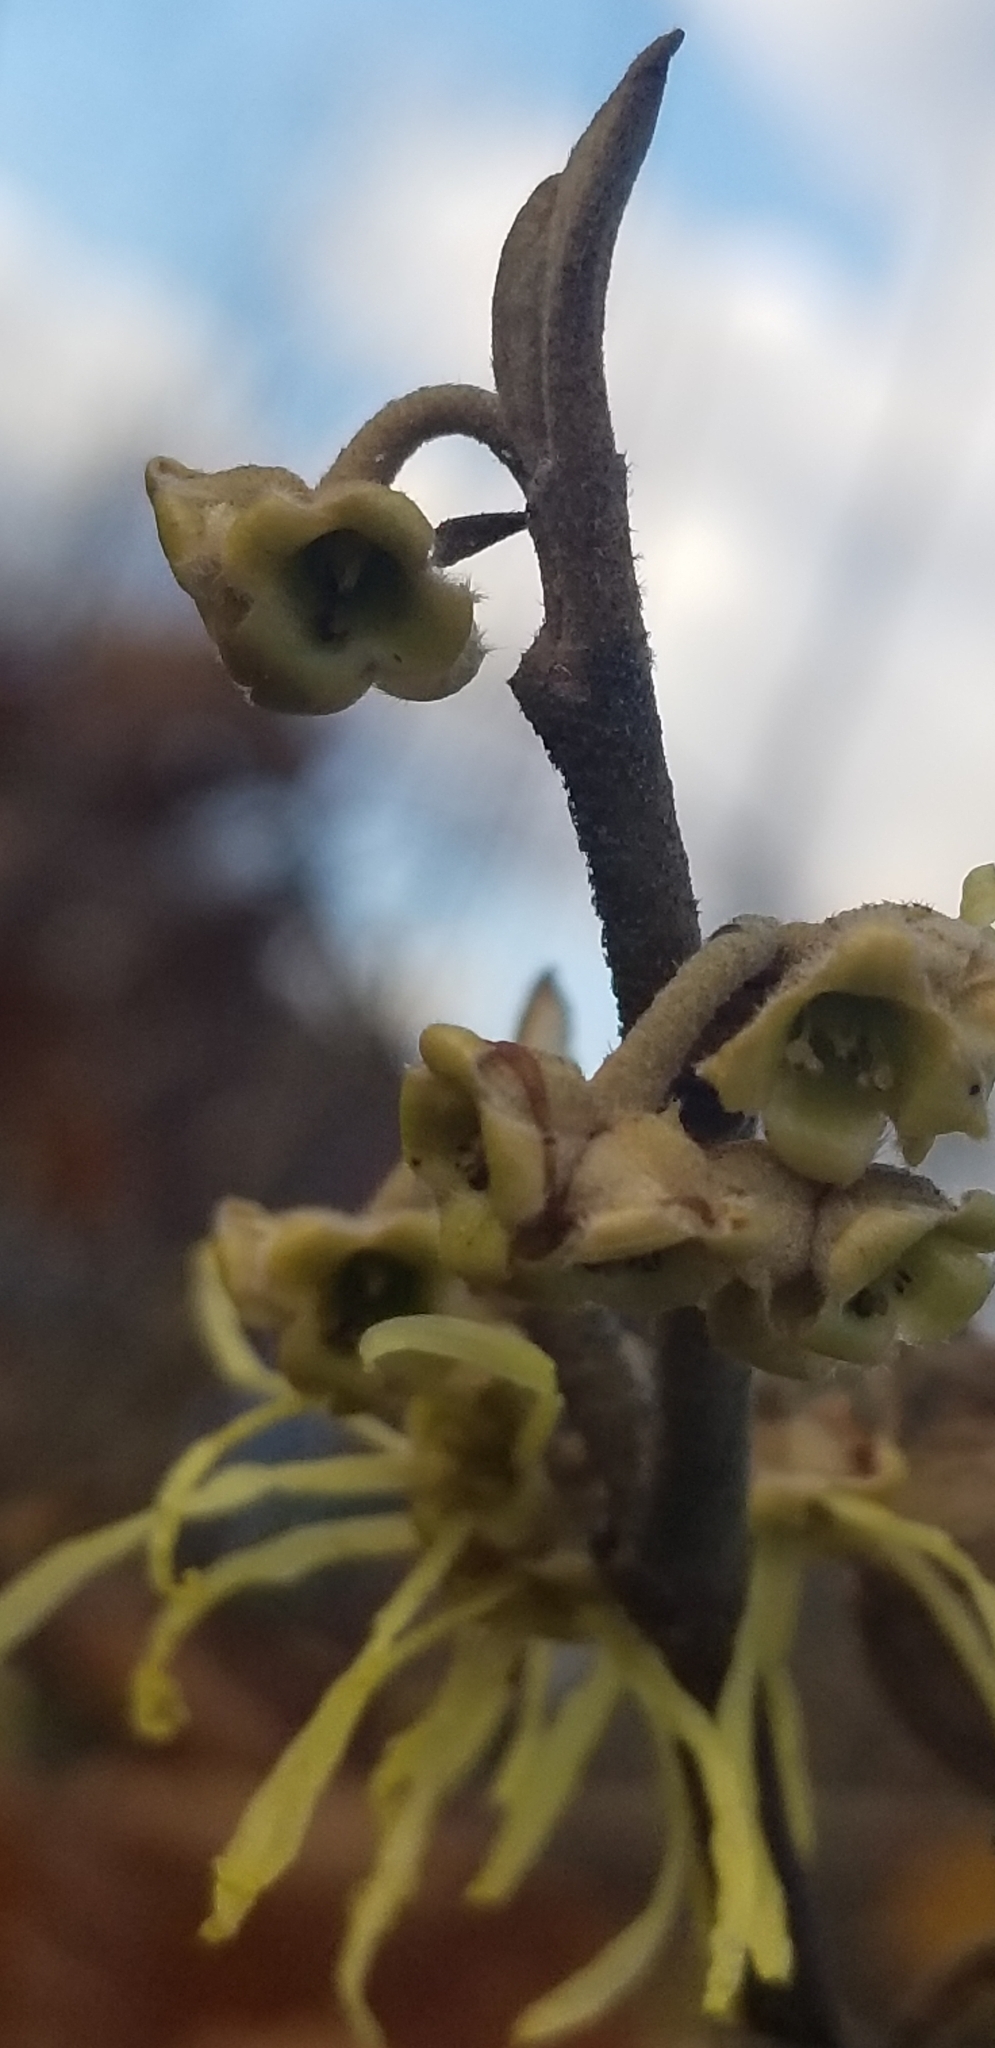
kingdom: Plantae
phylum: Tracheophyta
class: Magnoliopsida
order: Saxifragales
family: Hamamelidaceae
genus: Hamamelis
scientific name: Hamamelis virginiana
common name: Witch-hazel
